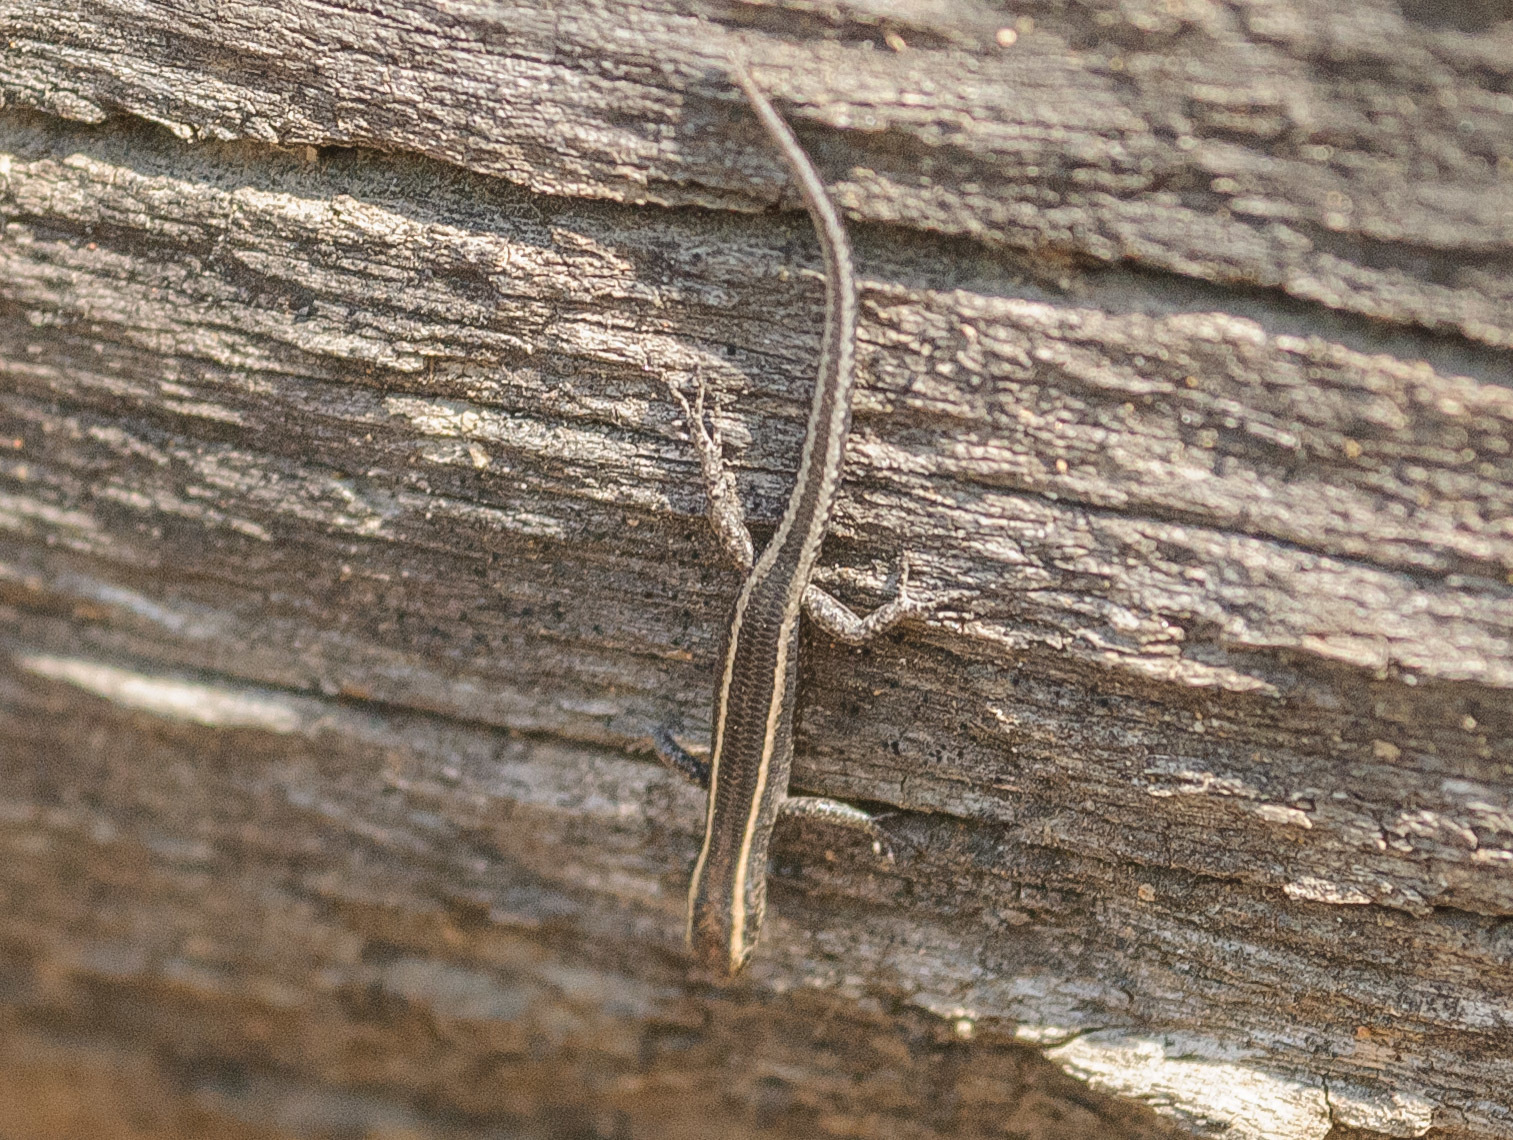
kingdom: Animalia
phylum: Chordata
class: Squamata
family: Scincidae
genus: Cryptoblepharus
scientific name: Cryptoblepharus pulcher
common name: Elegant snake-eyed skink
